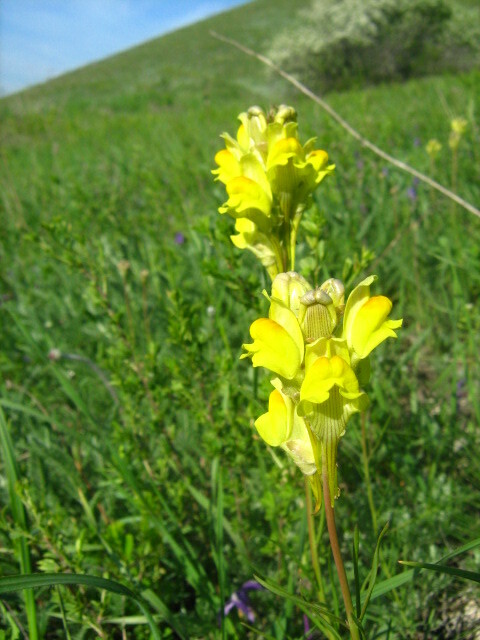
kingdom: Plantae
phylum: Tracheophyta
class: Magnoliopsida
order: Lamiales
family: Plantaginaceae
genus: Linaria
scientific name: Linaria macroura
